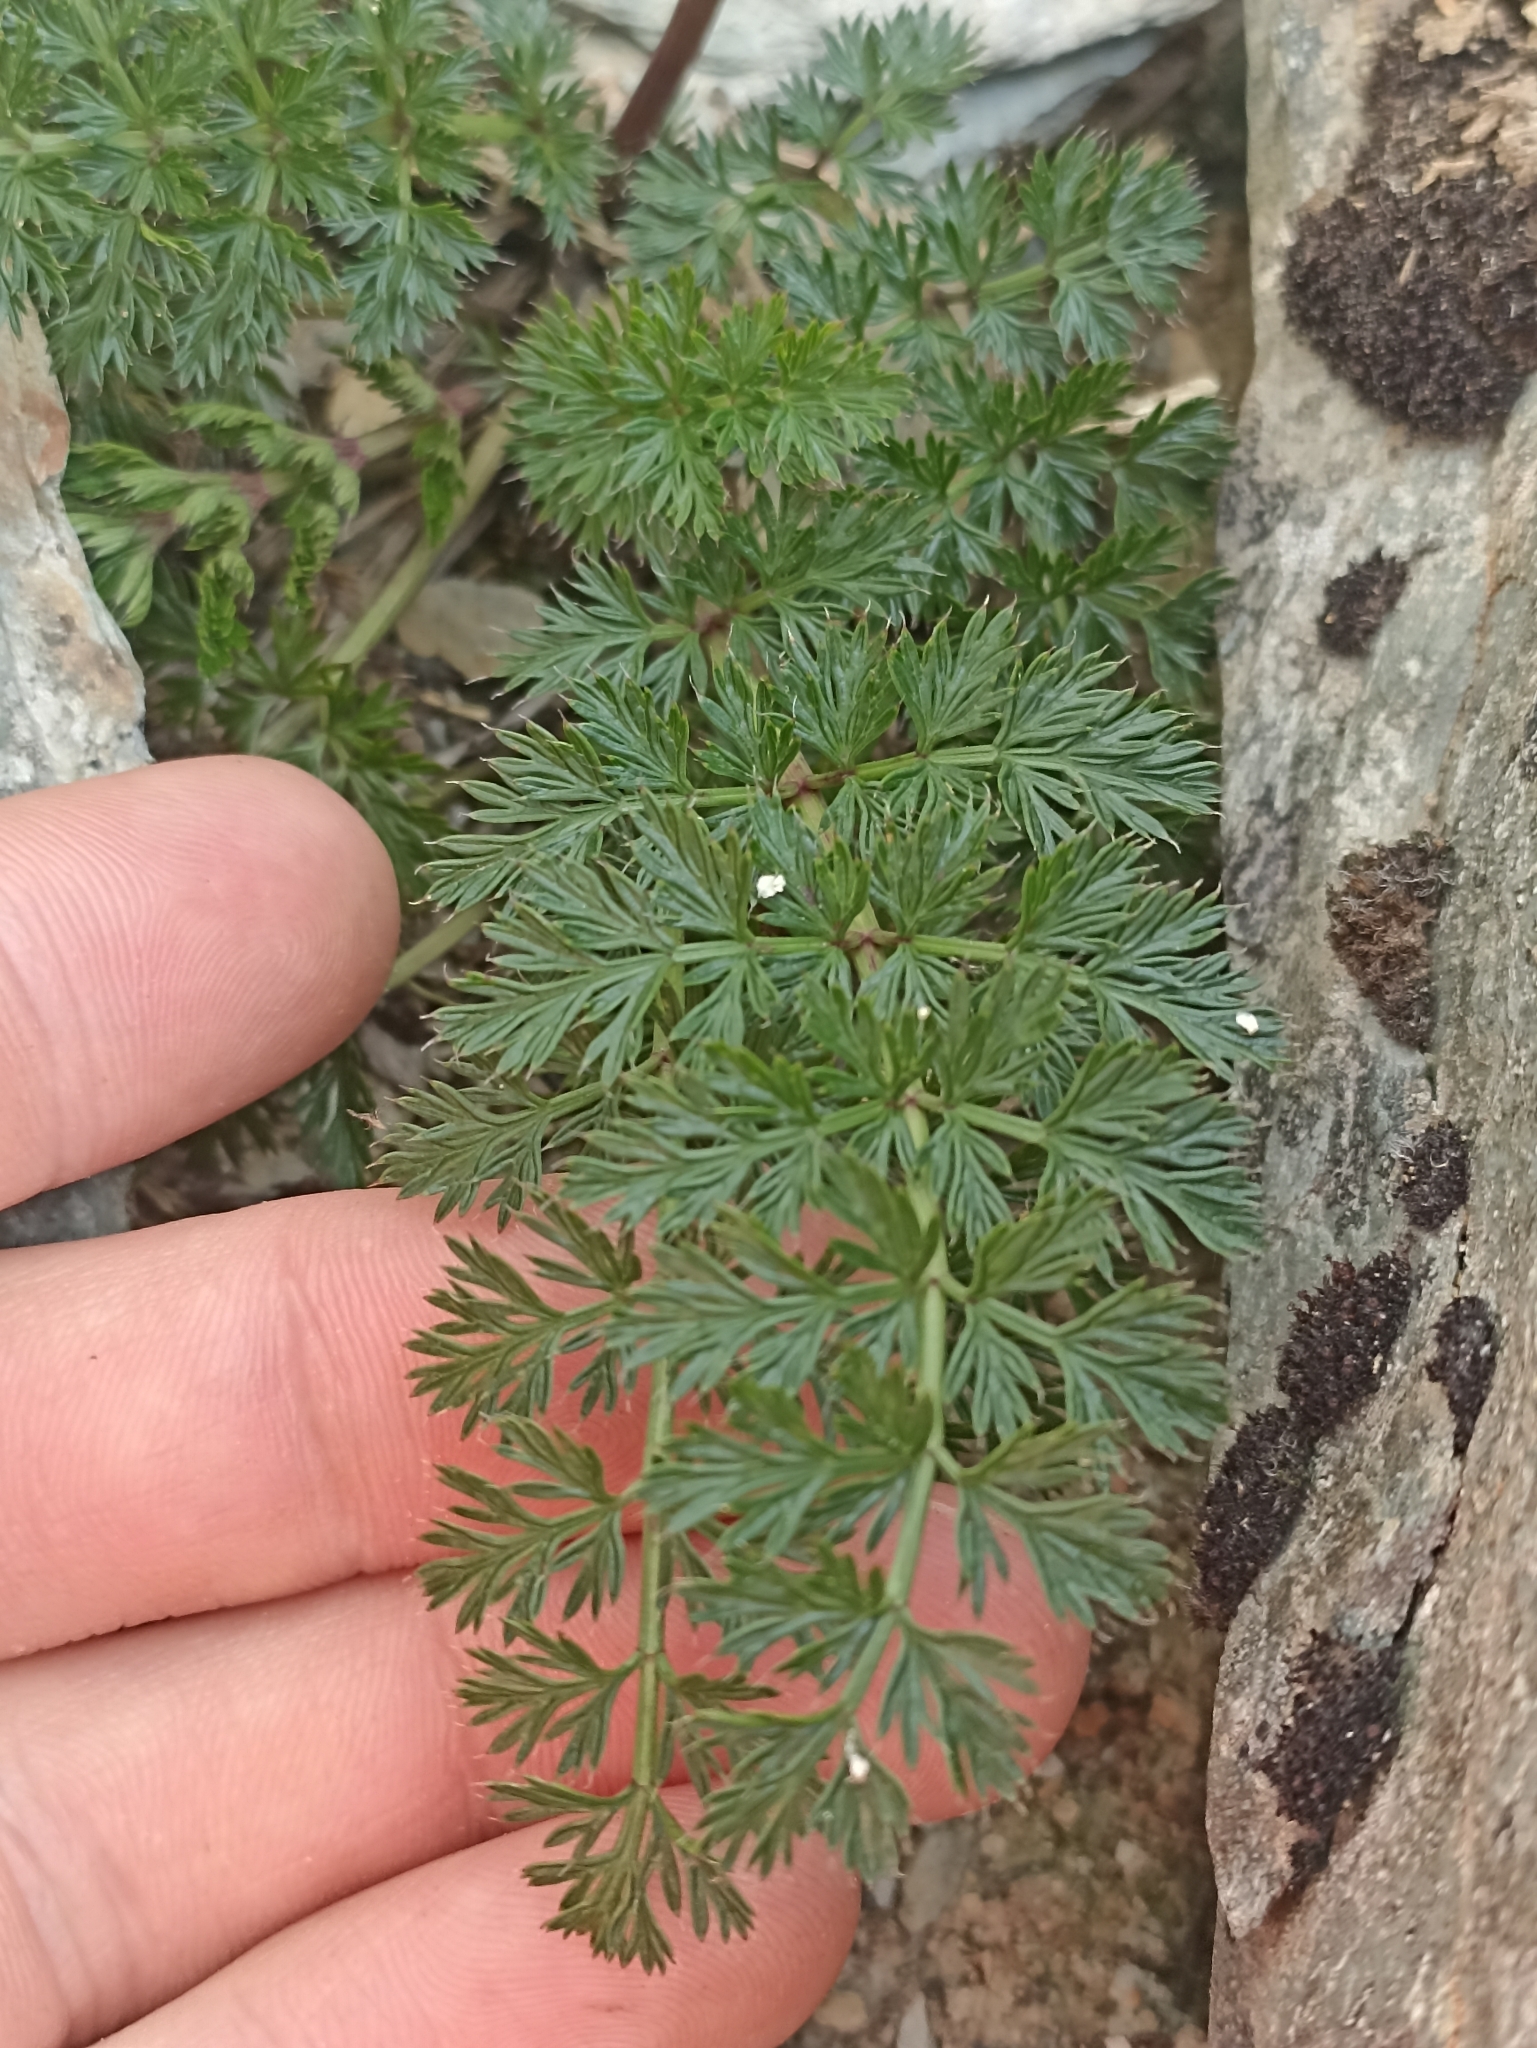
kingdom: Plantae
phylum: Tracheophyta
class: Magnoliopsida
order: Apiales
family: Apiaceae
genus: Anisotome
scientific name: Anisotome haastii
